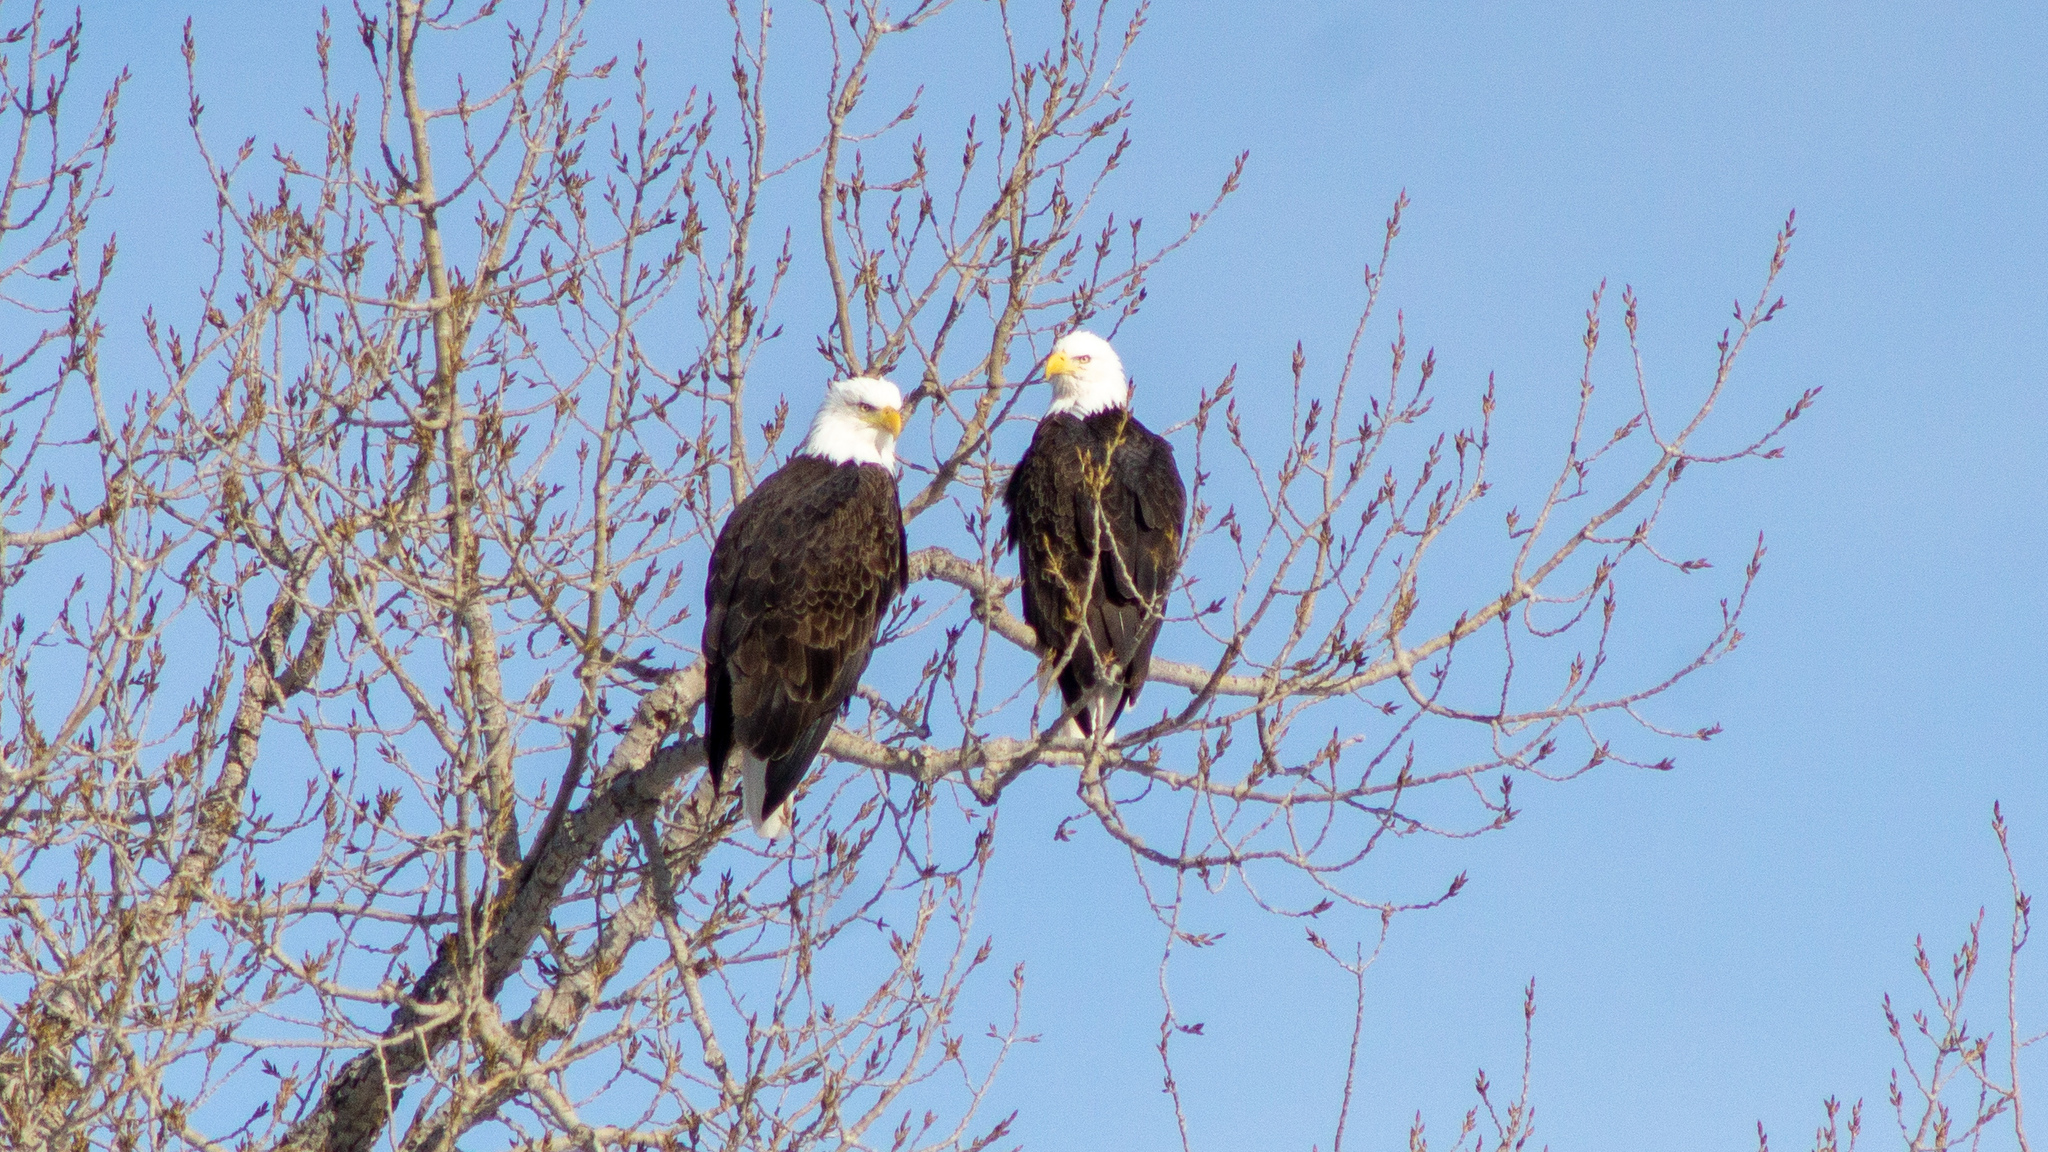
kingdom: Animalia
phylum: Chordata
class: Aves
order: Accipitriformes
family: Accipitridae
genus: Haliaeetus
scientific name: Haliaeetus leucocephalus
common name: Bald eagle
